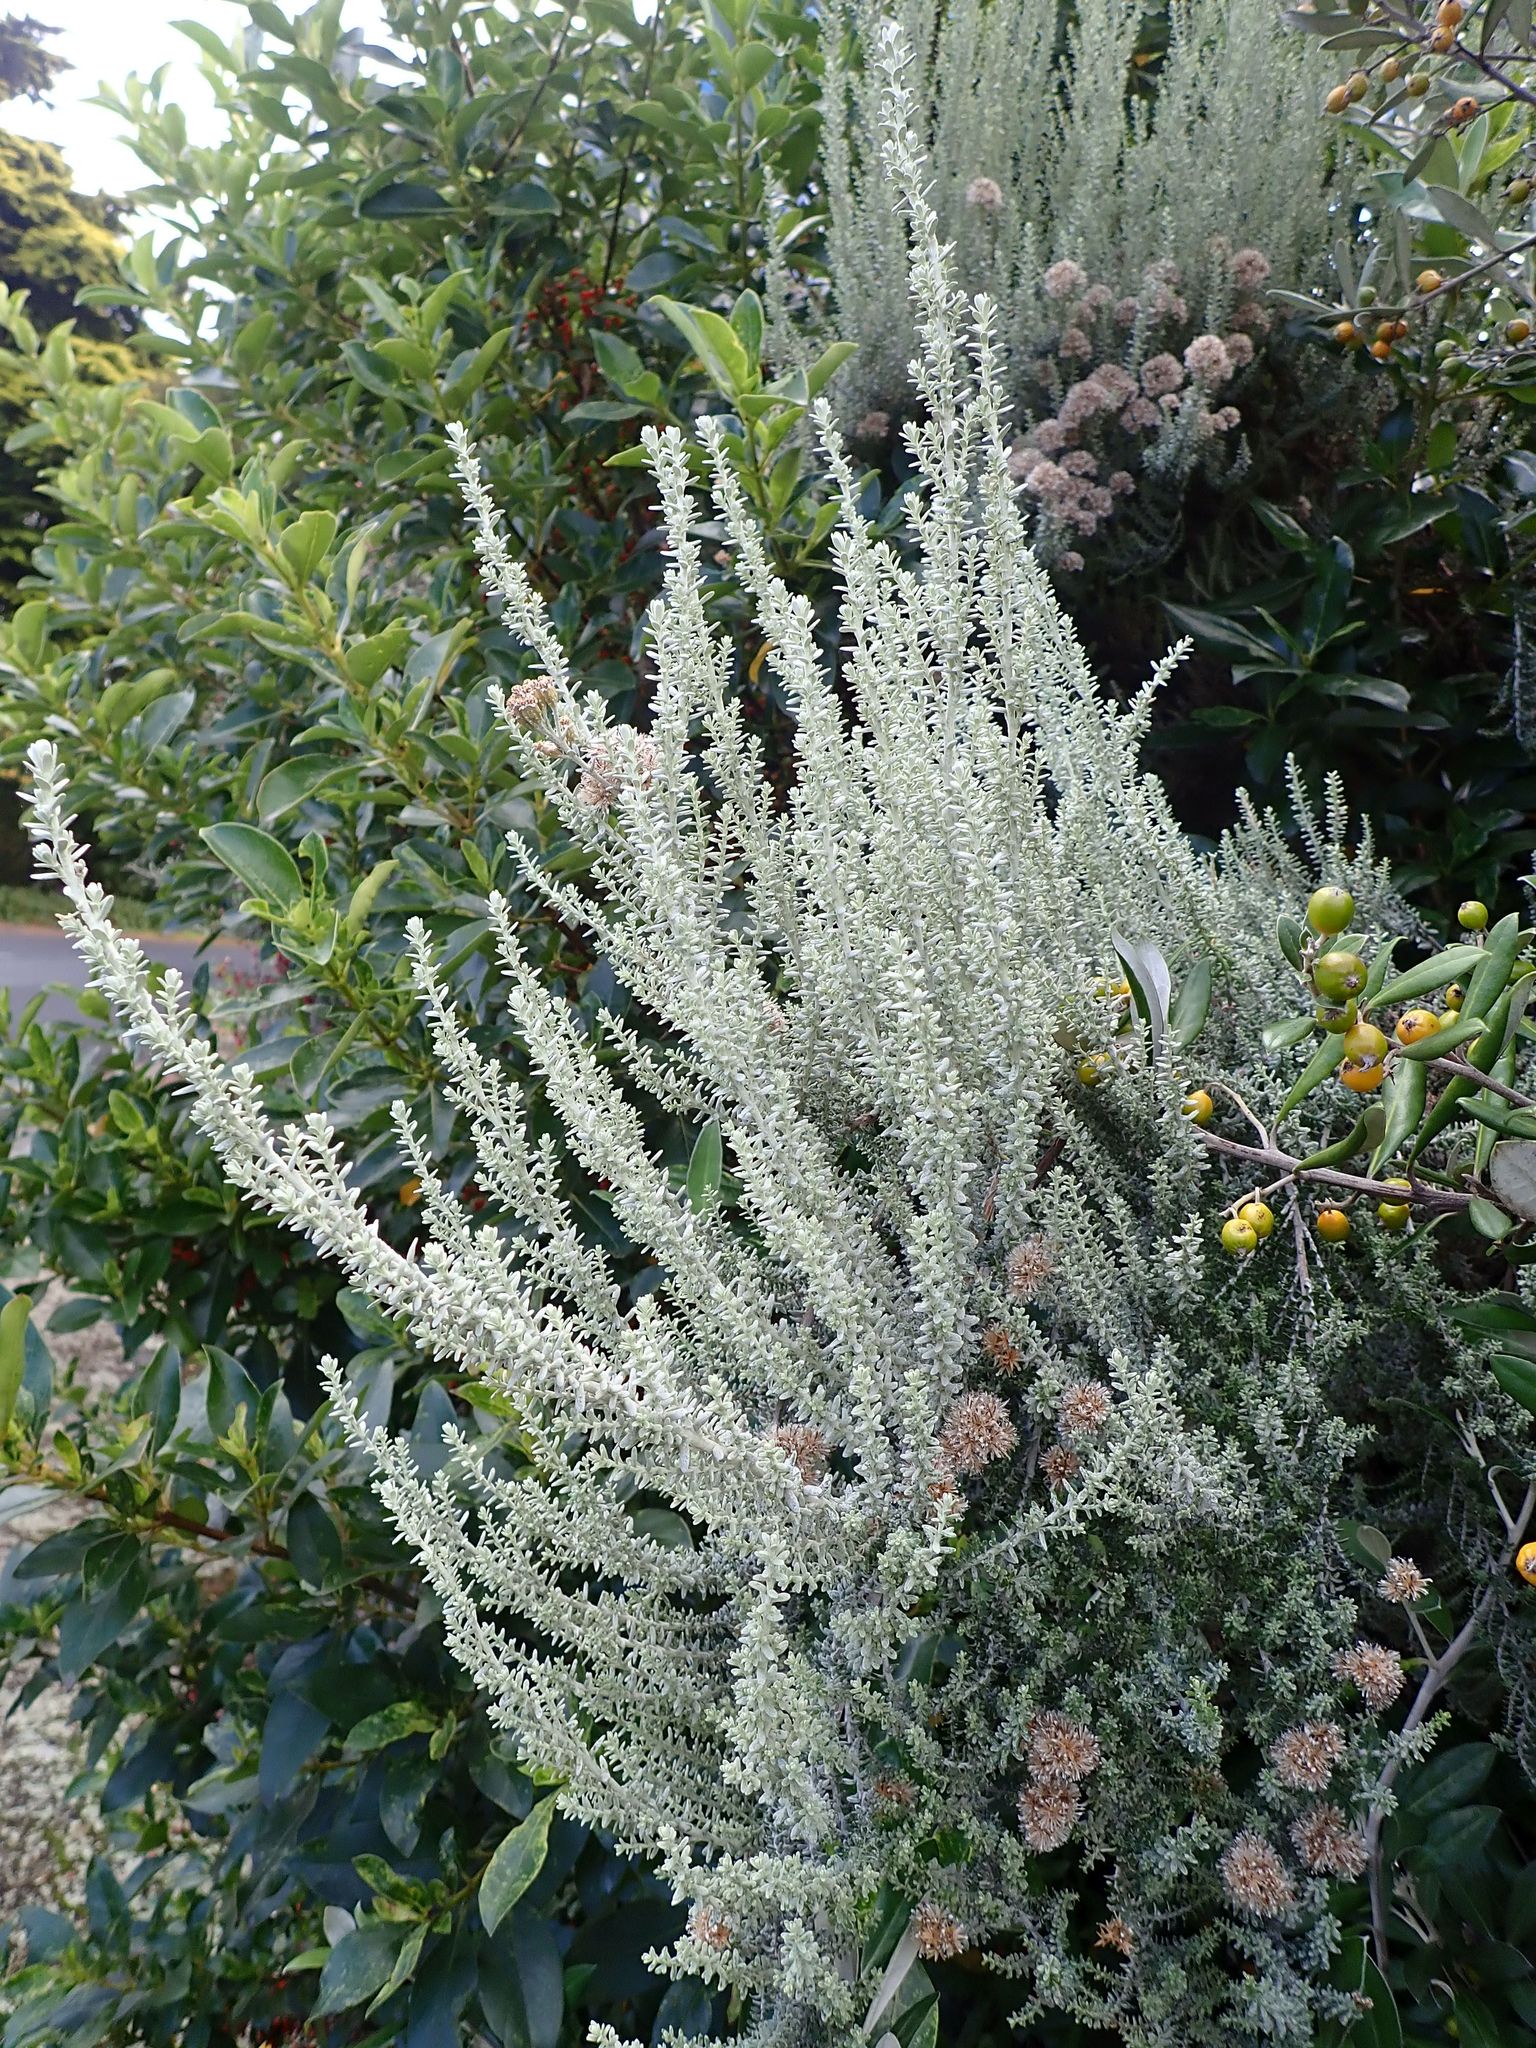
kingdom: Plantae
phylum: Tracheophyta
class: Magnoliopsida
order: Asterales
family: Asteraceae
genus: Ozothamnus
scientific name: Ozothamnus leptophyllus
